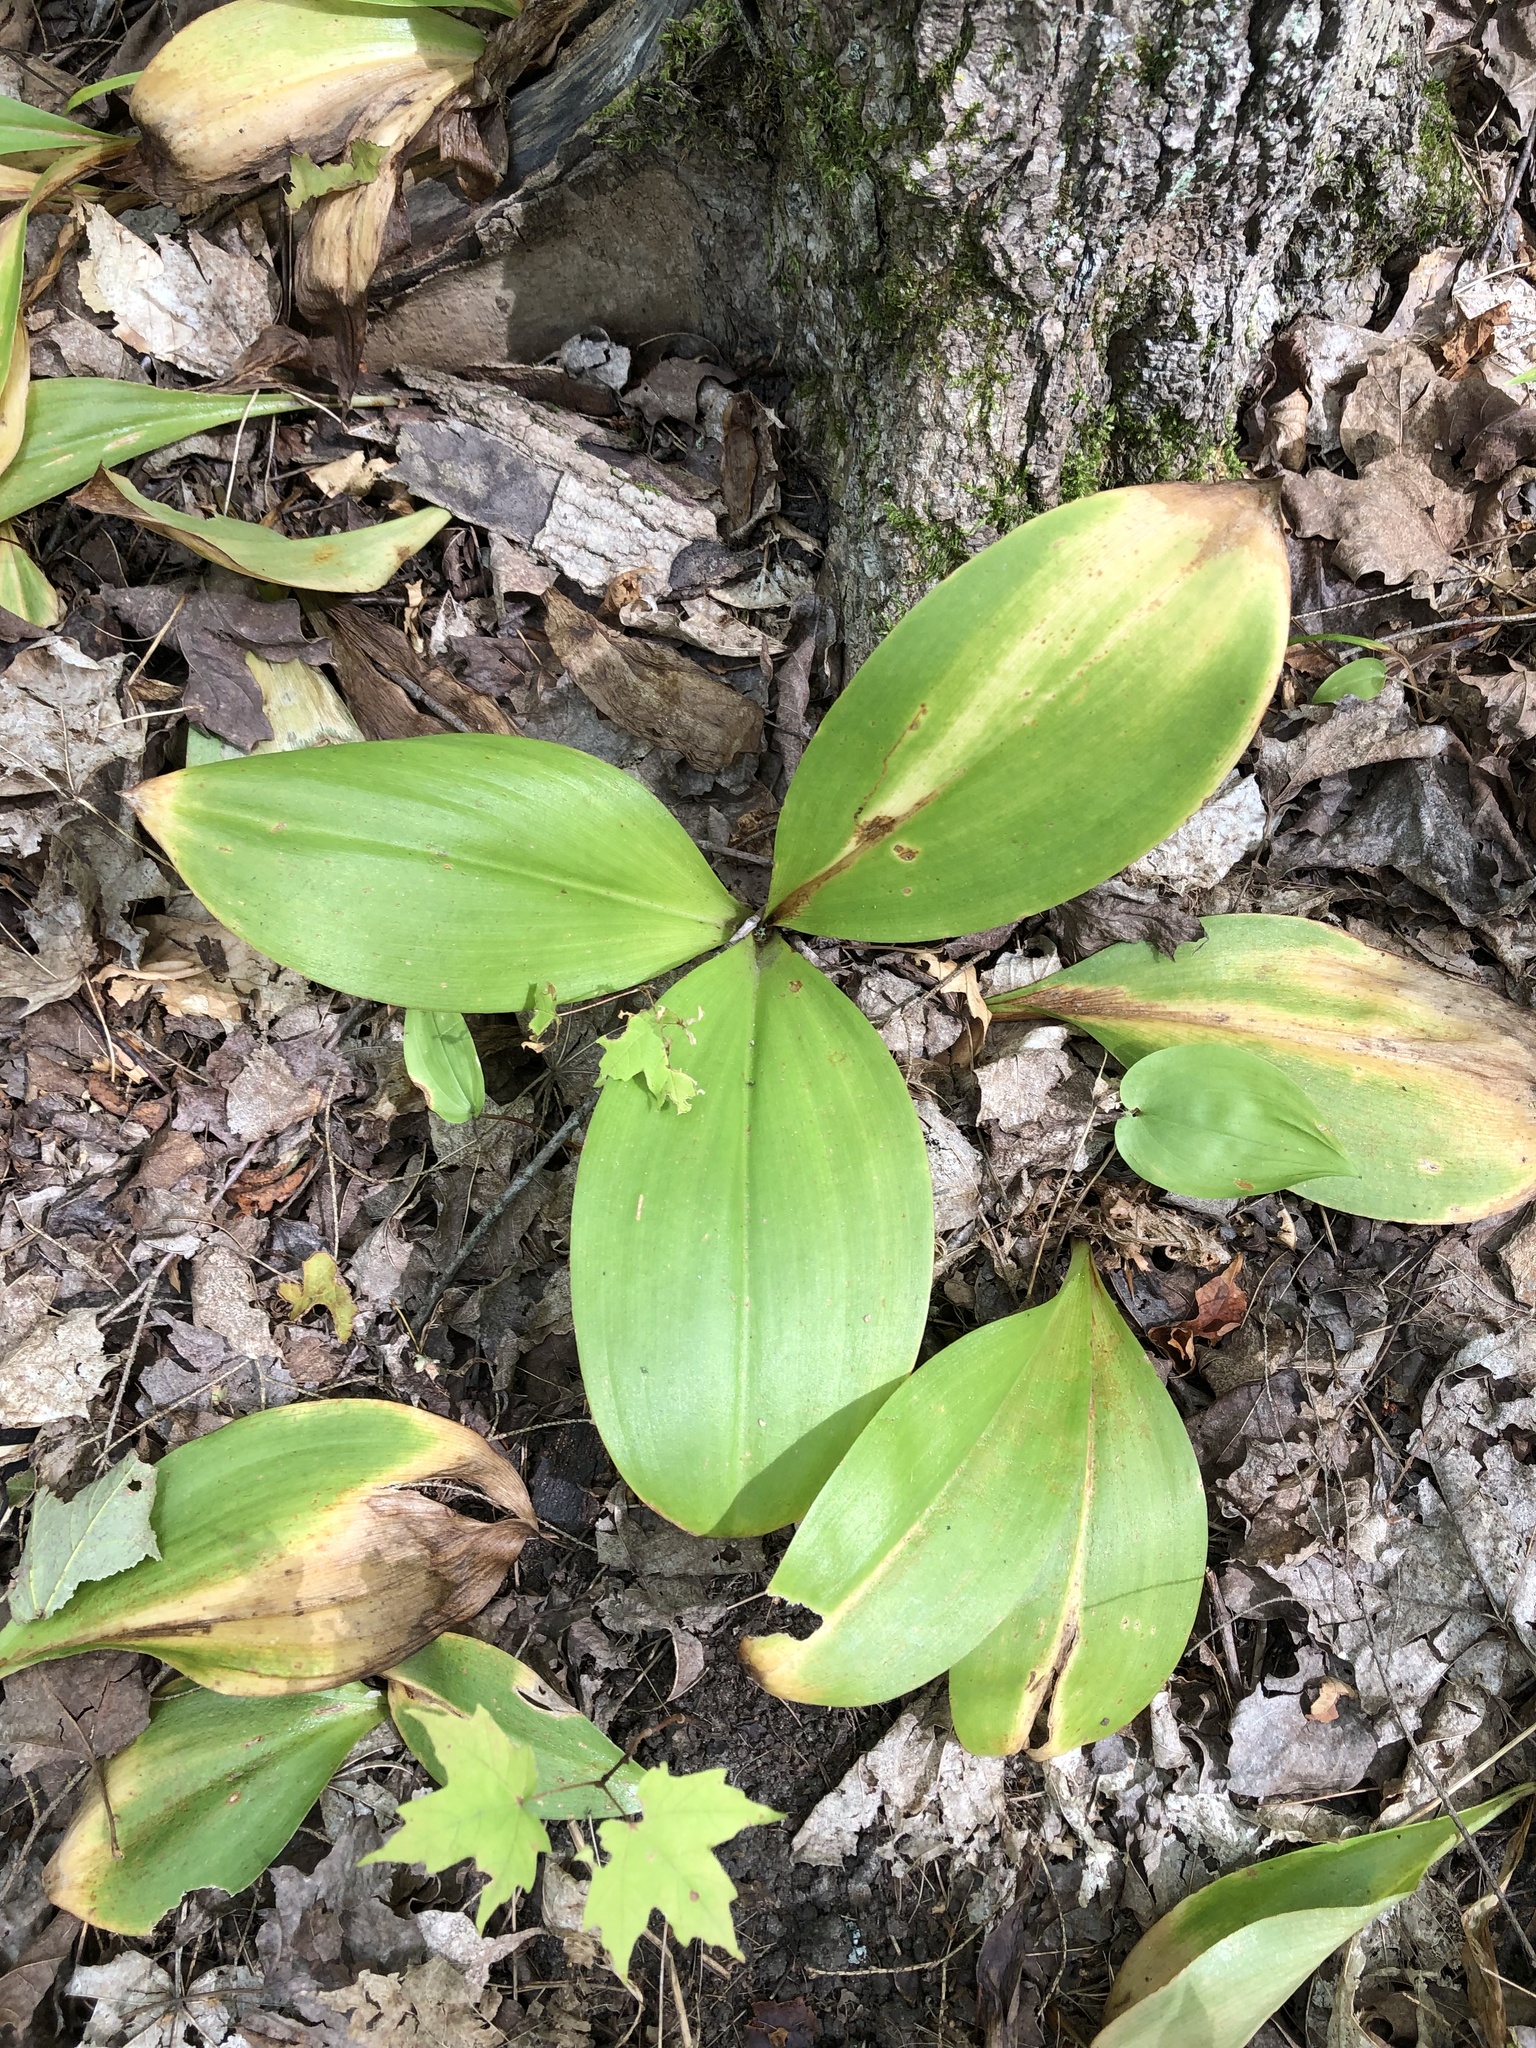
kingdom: Plantae
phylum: Tracheophyta
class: Liliopsida
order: Liliales
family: Liliaceae
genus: Clintonia
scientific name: Clintonia borealis
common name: Yellow clintonia
